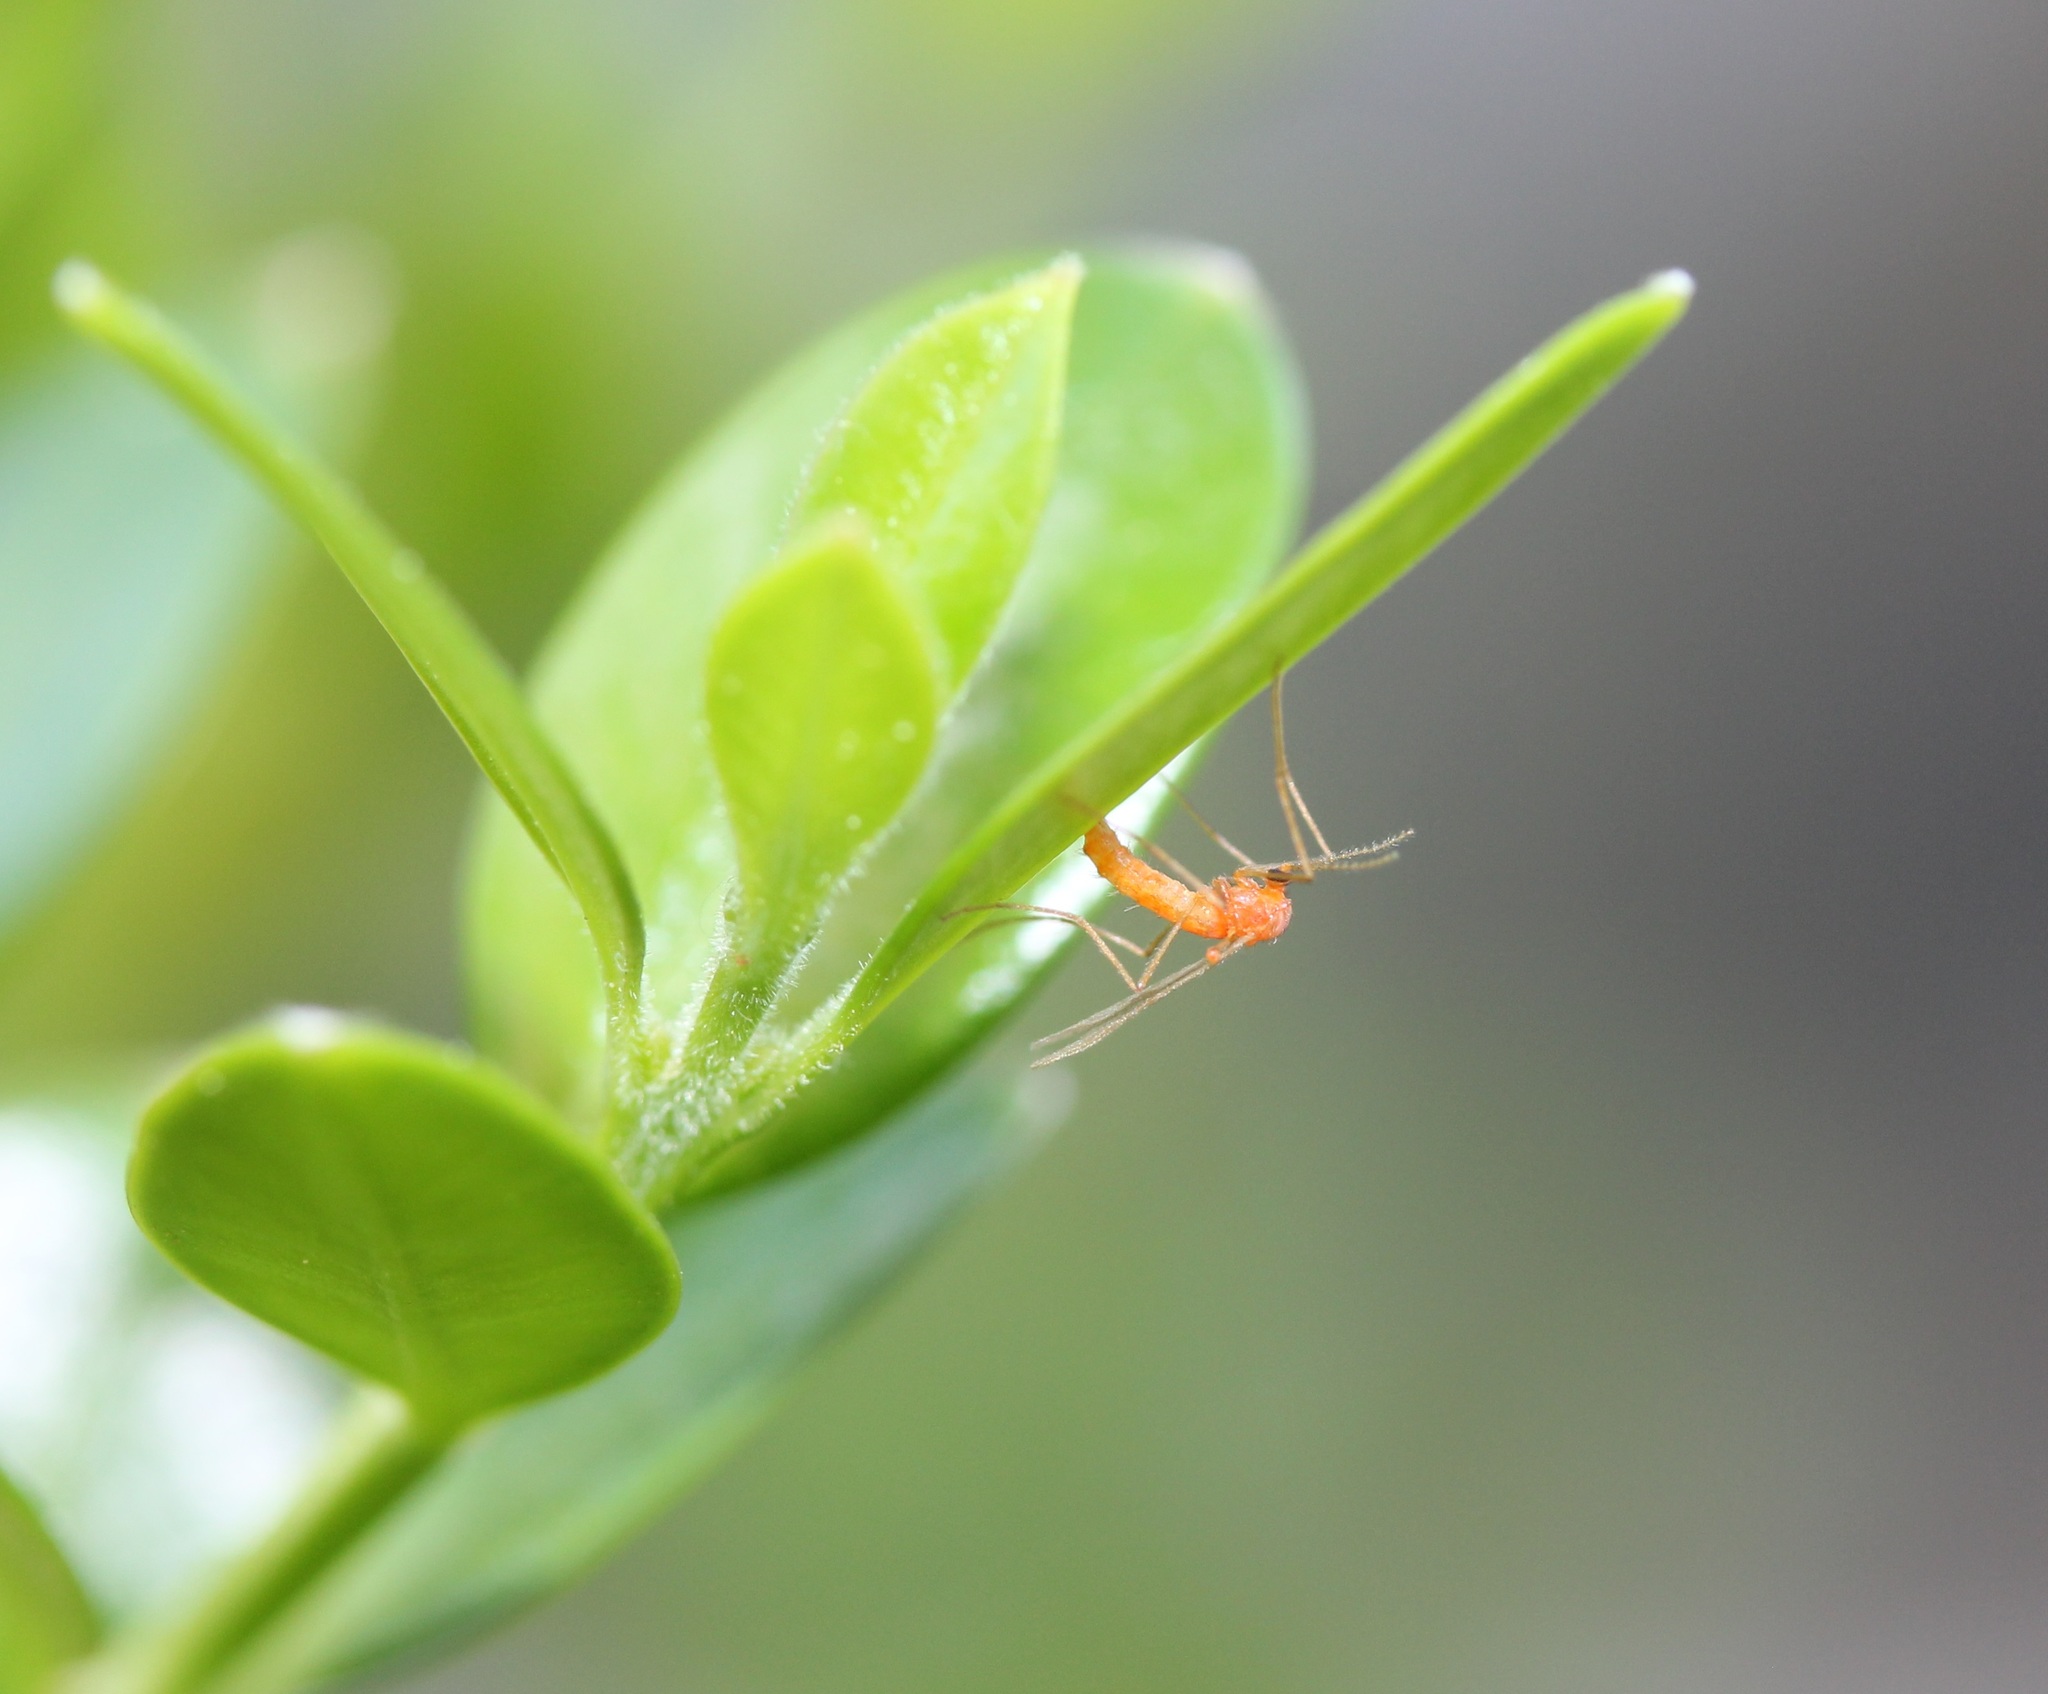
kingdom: Animalia
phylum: Arthropoda
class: Insecta
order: Diptera
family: Cecidomyiidae
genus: Monarthropalpus
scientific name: Monarthropalpus flavus
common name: Boxwood leafminer
